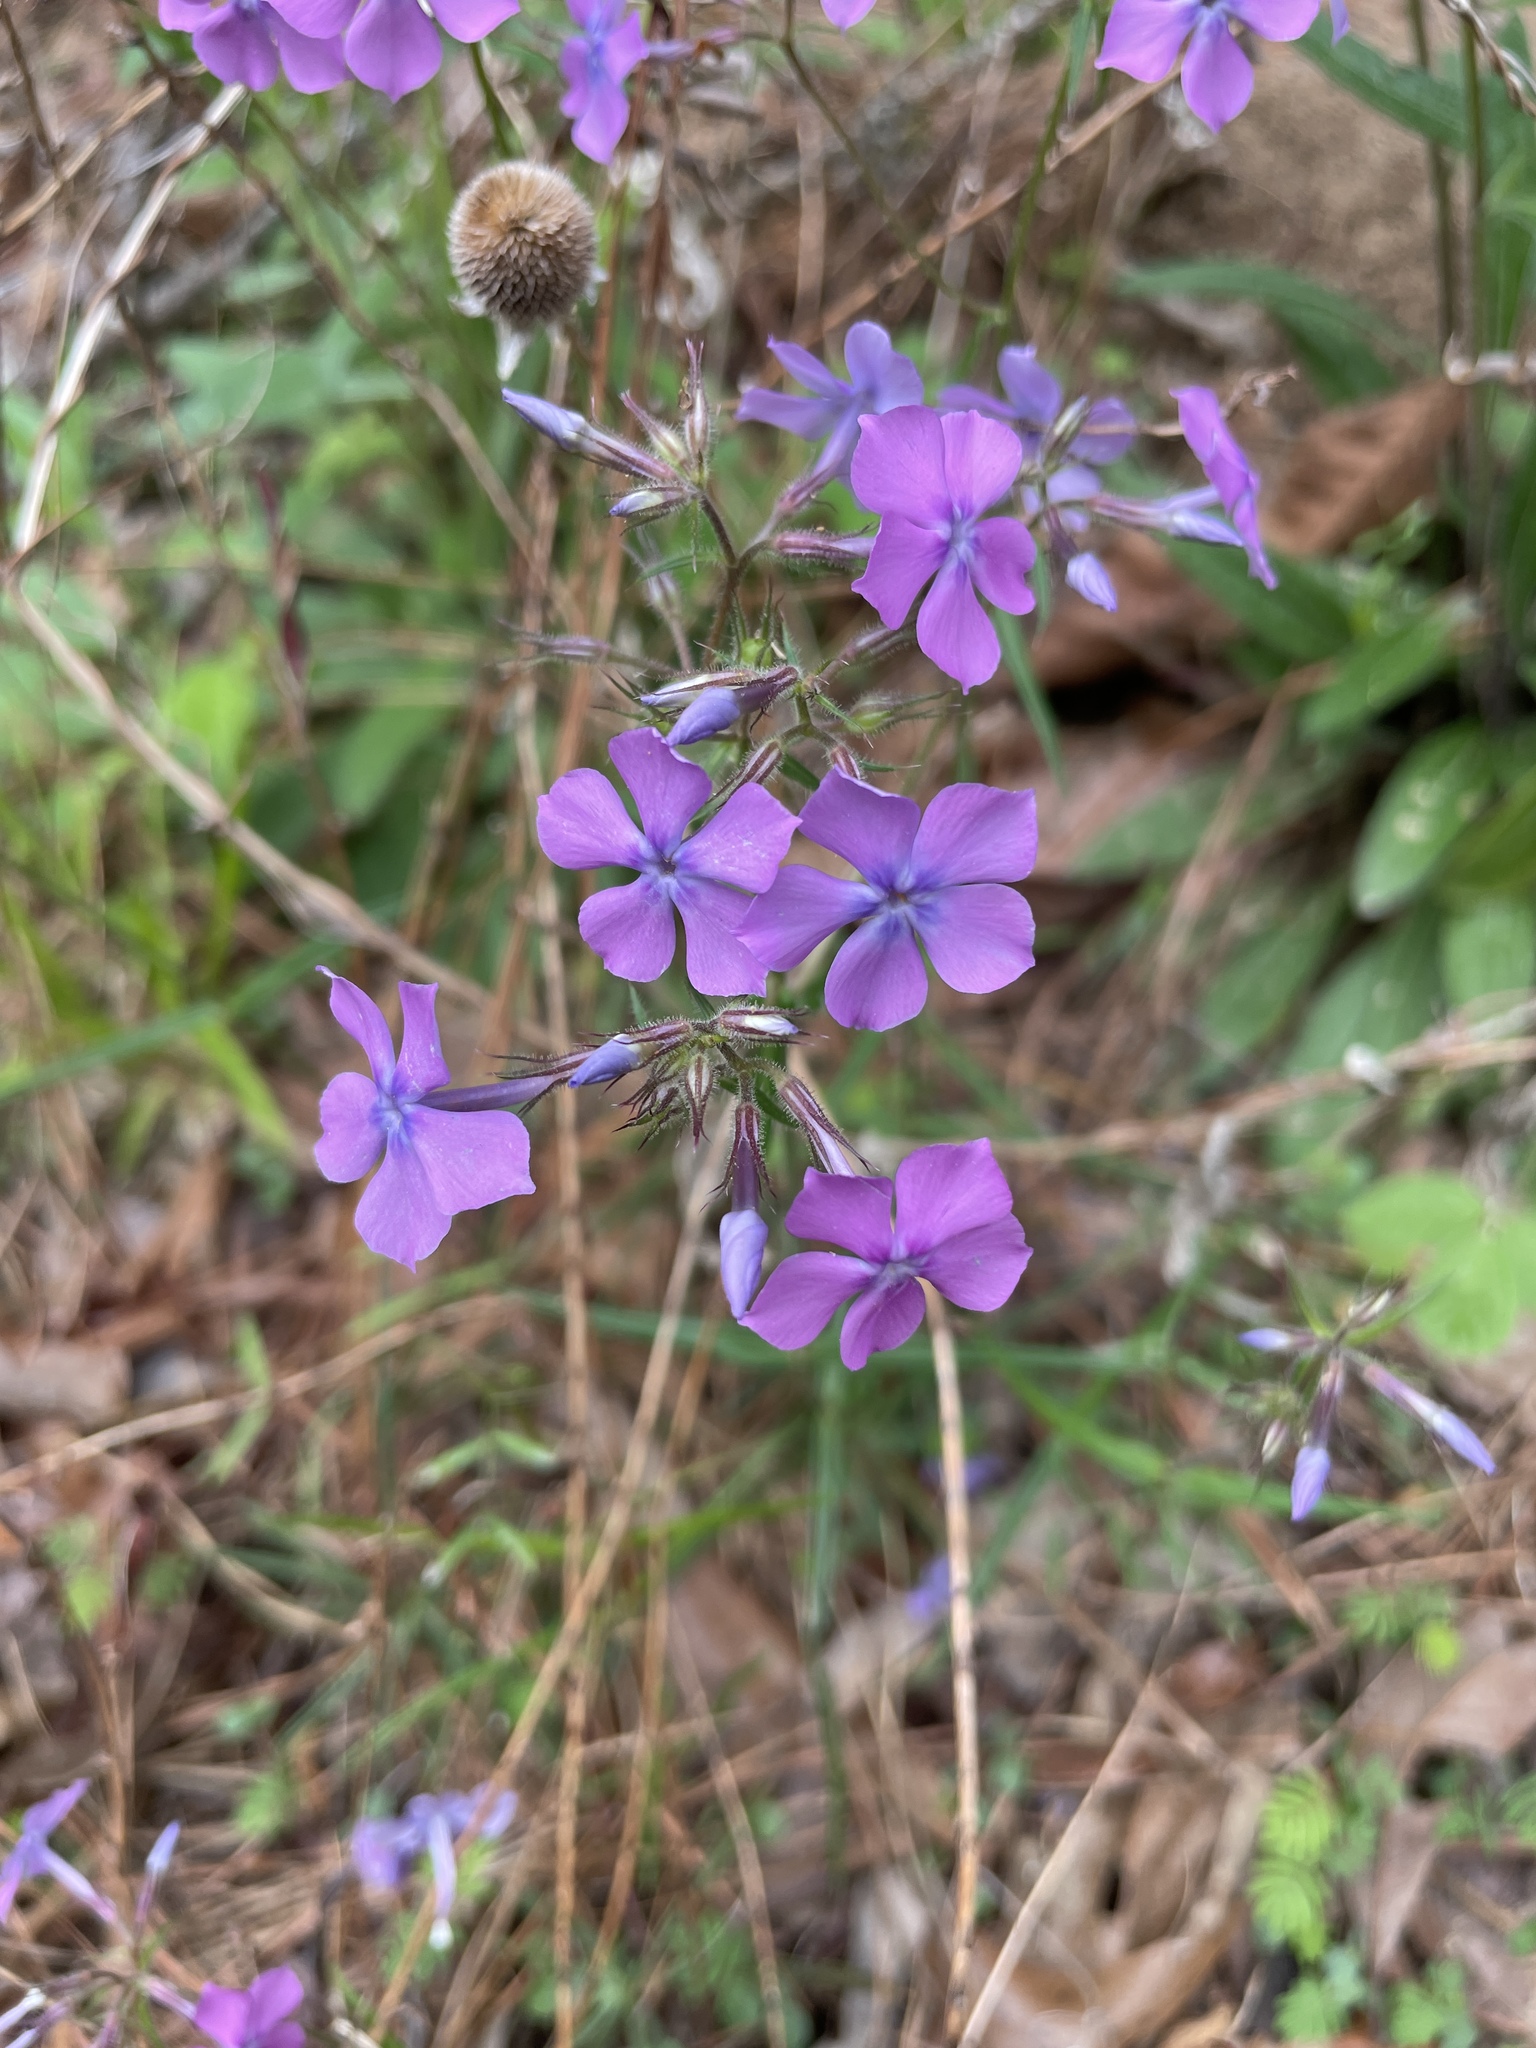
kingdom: Plantae
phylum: Tracheophyta
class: Magnoliopsida
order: Ericales
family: Polemoniaceae
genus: Phlox
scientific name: Phlox pilosa
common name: Prairie phlox
